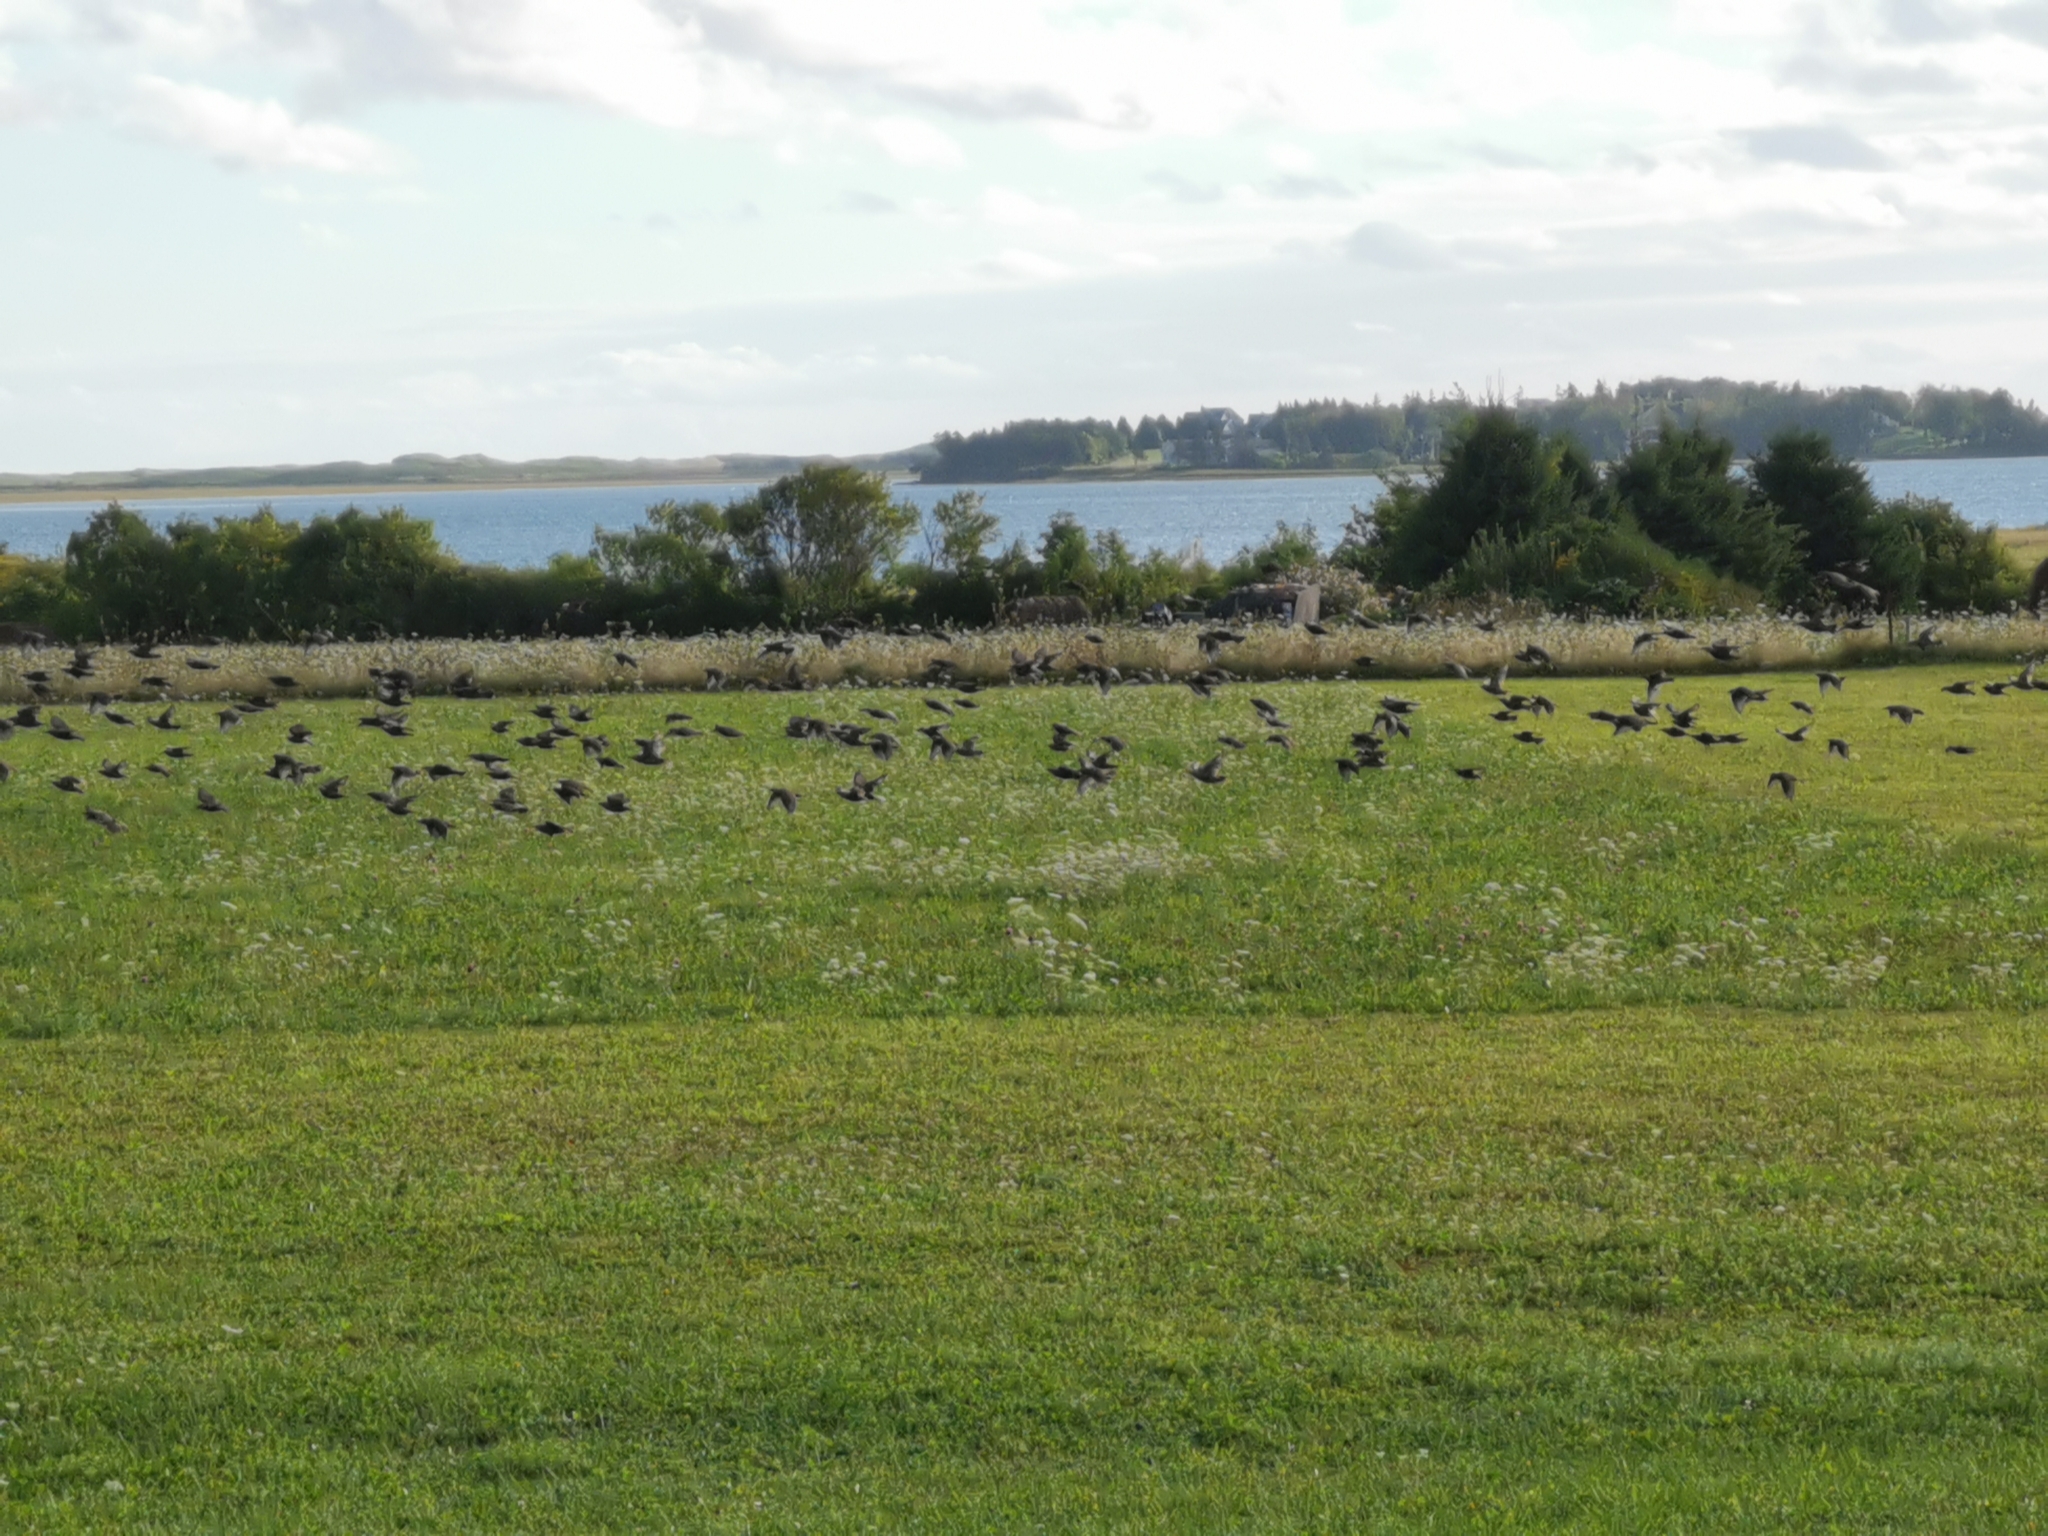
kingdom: Animalia
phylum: Chordata
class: Aves
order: Passeriformes
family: Sturnidae
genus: Sturnus
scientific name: Sturnus vulgaris
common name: Common starling
